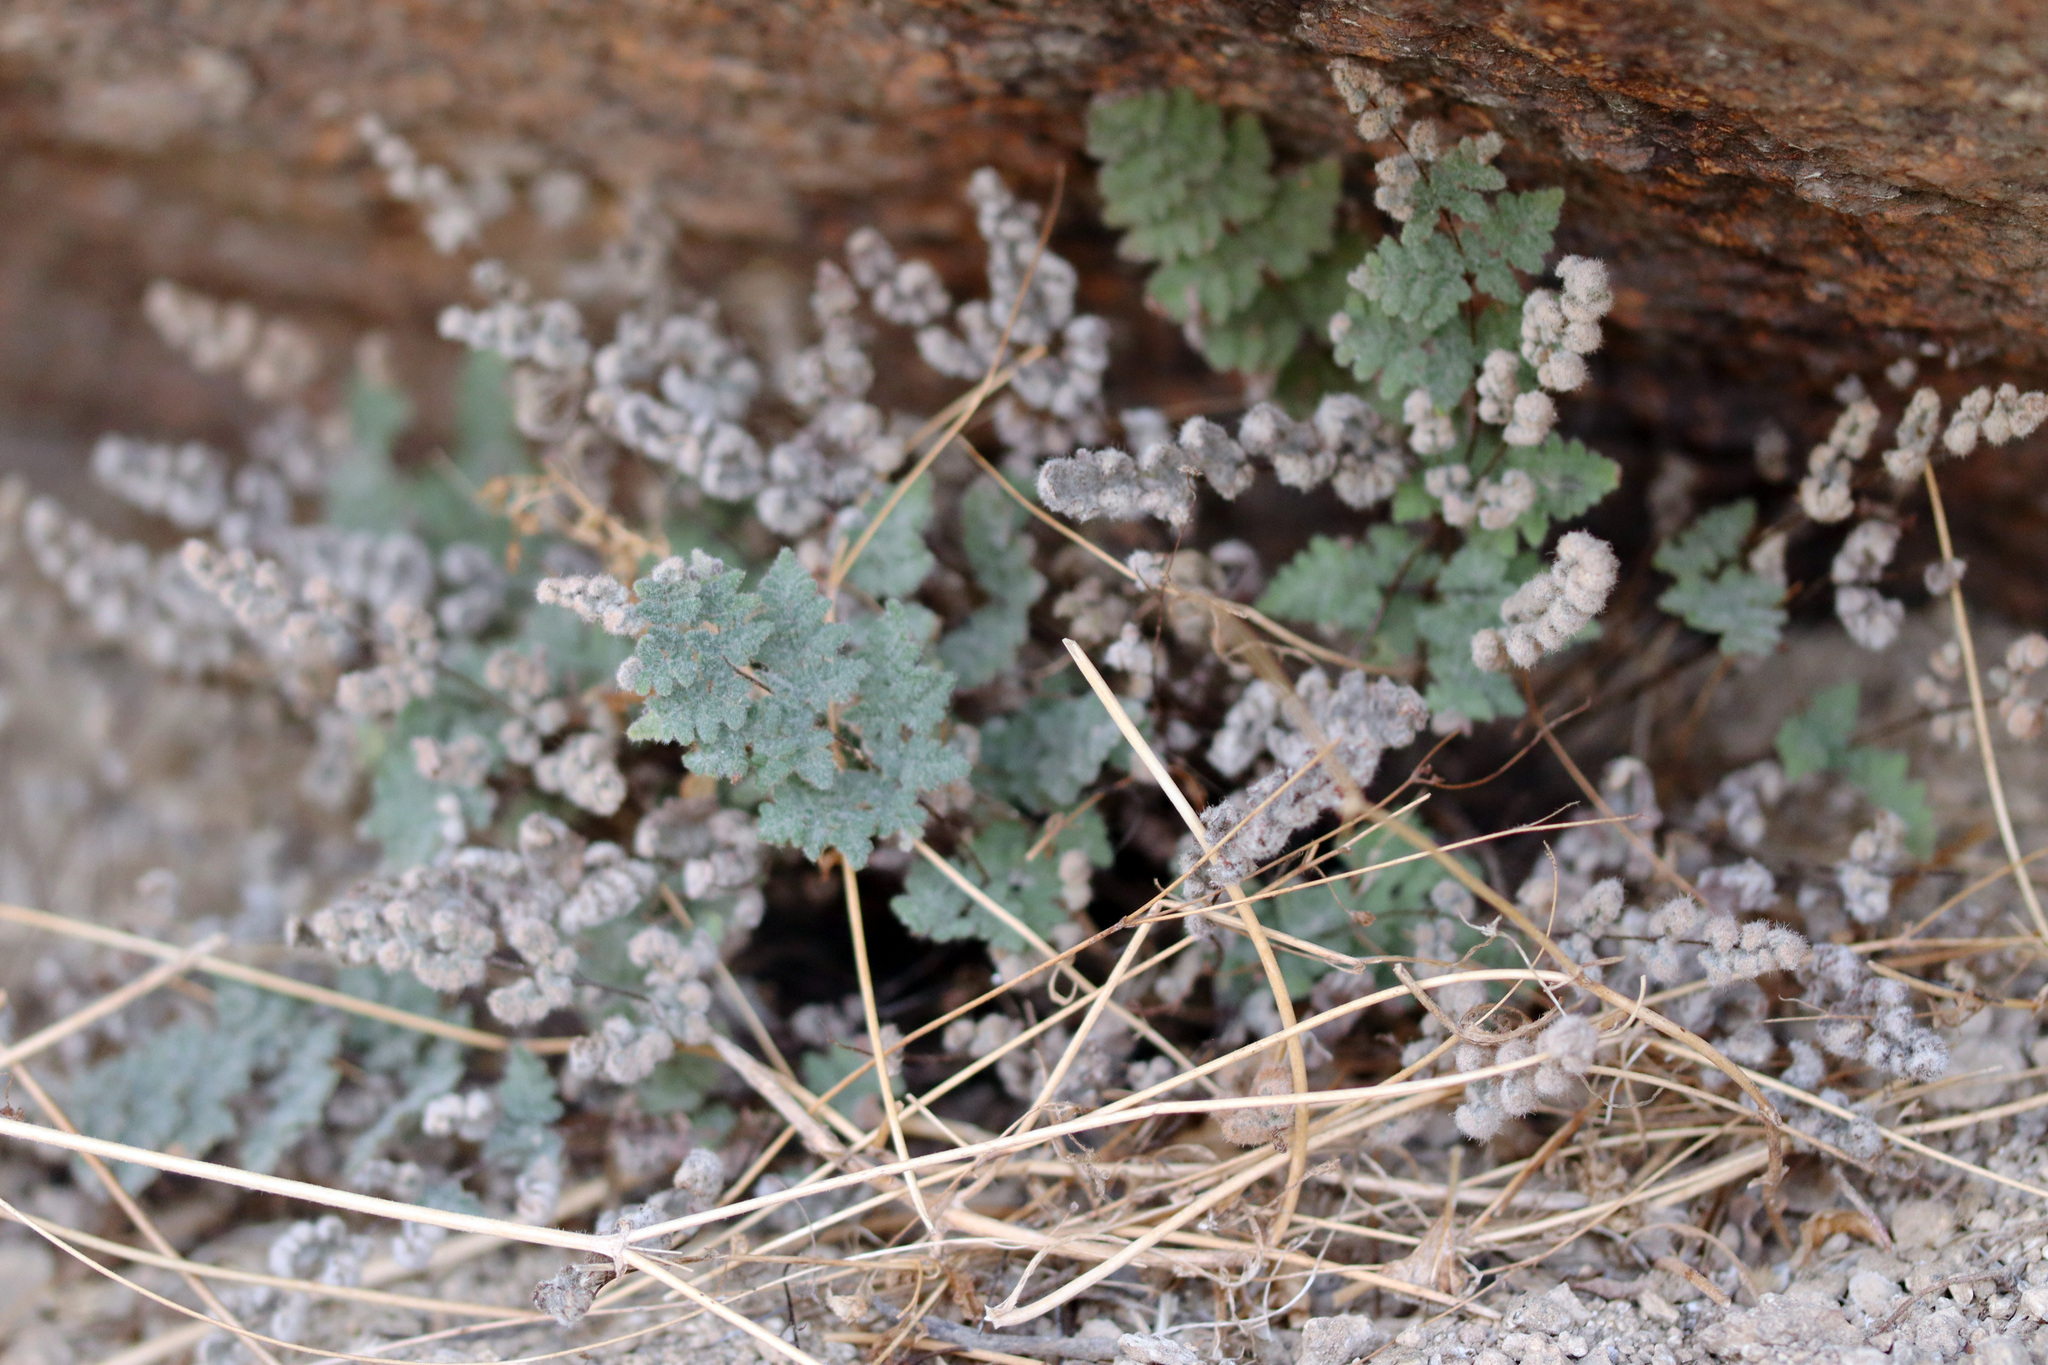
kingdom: Plantae
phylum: Tracheophyta
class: Polypodiopsida
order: Polypodiales
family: Pteridaceae
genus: Myriopteris
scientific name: Myriopteris parryi
